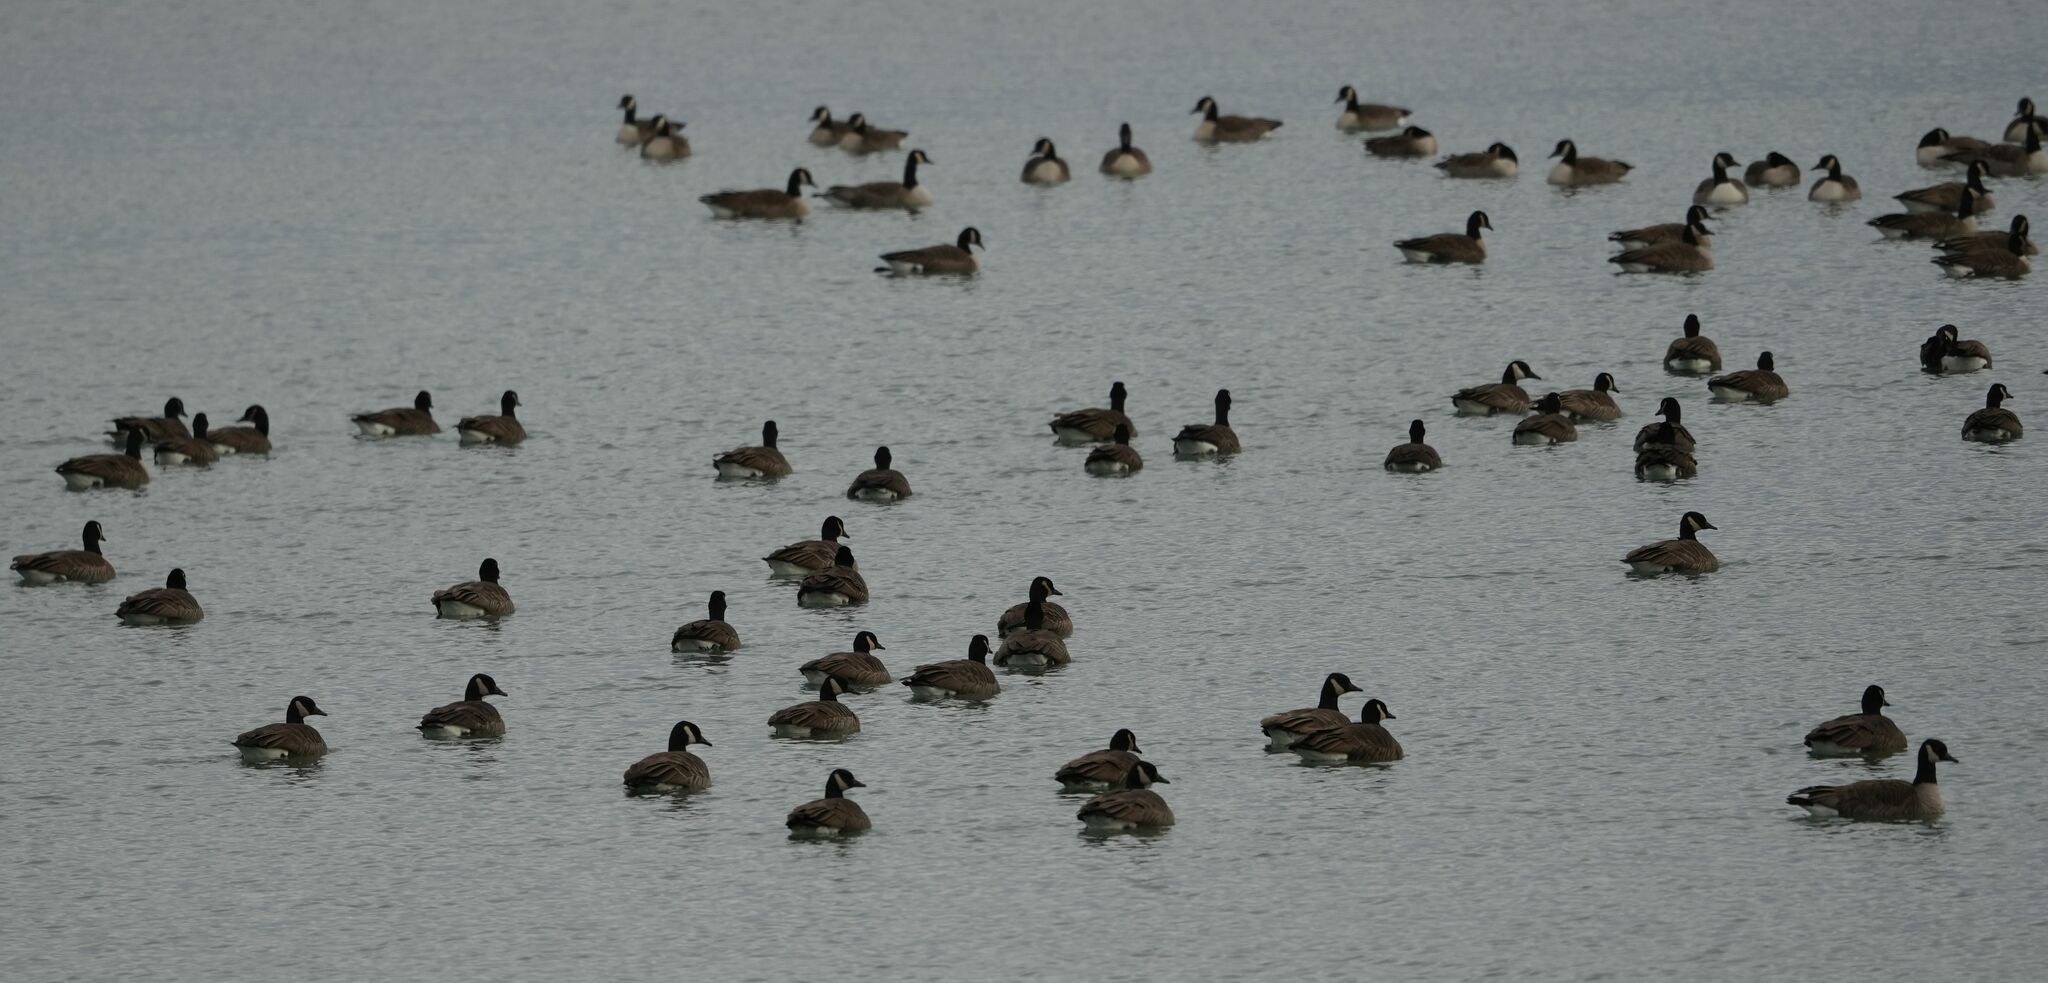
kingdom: Animalia
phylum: Chordata
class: Aves
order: Anseriformes
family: Anatidae
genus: Branta
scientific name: Branta canadensis
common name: Canada goose
